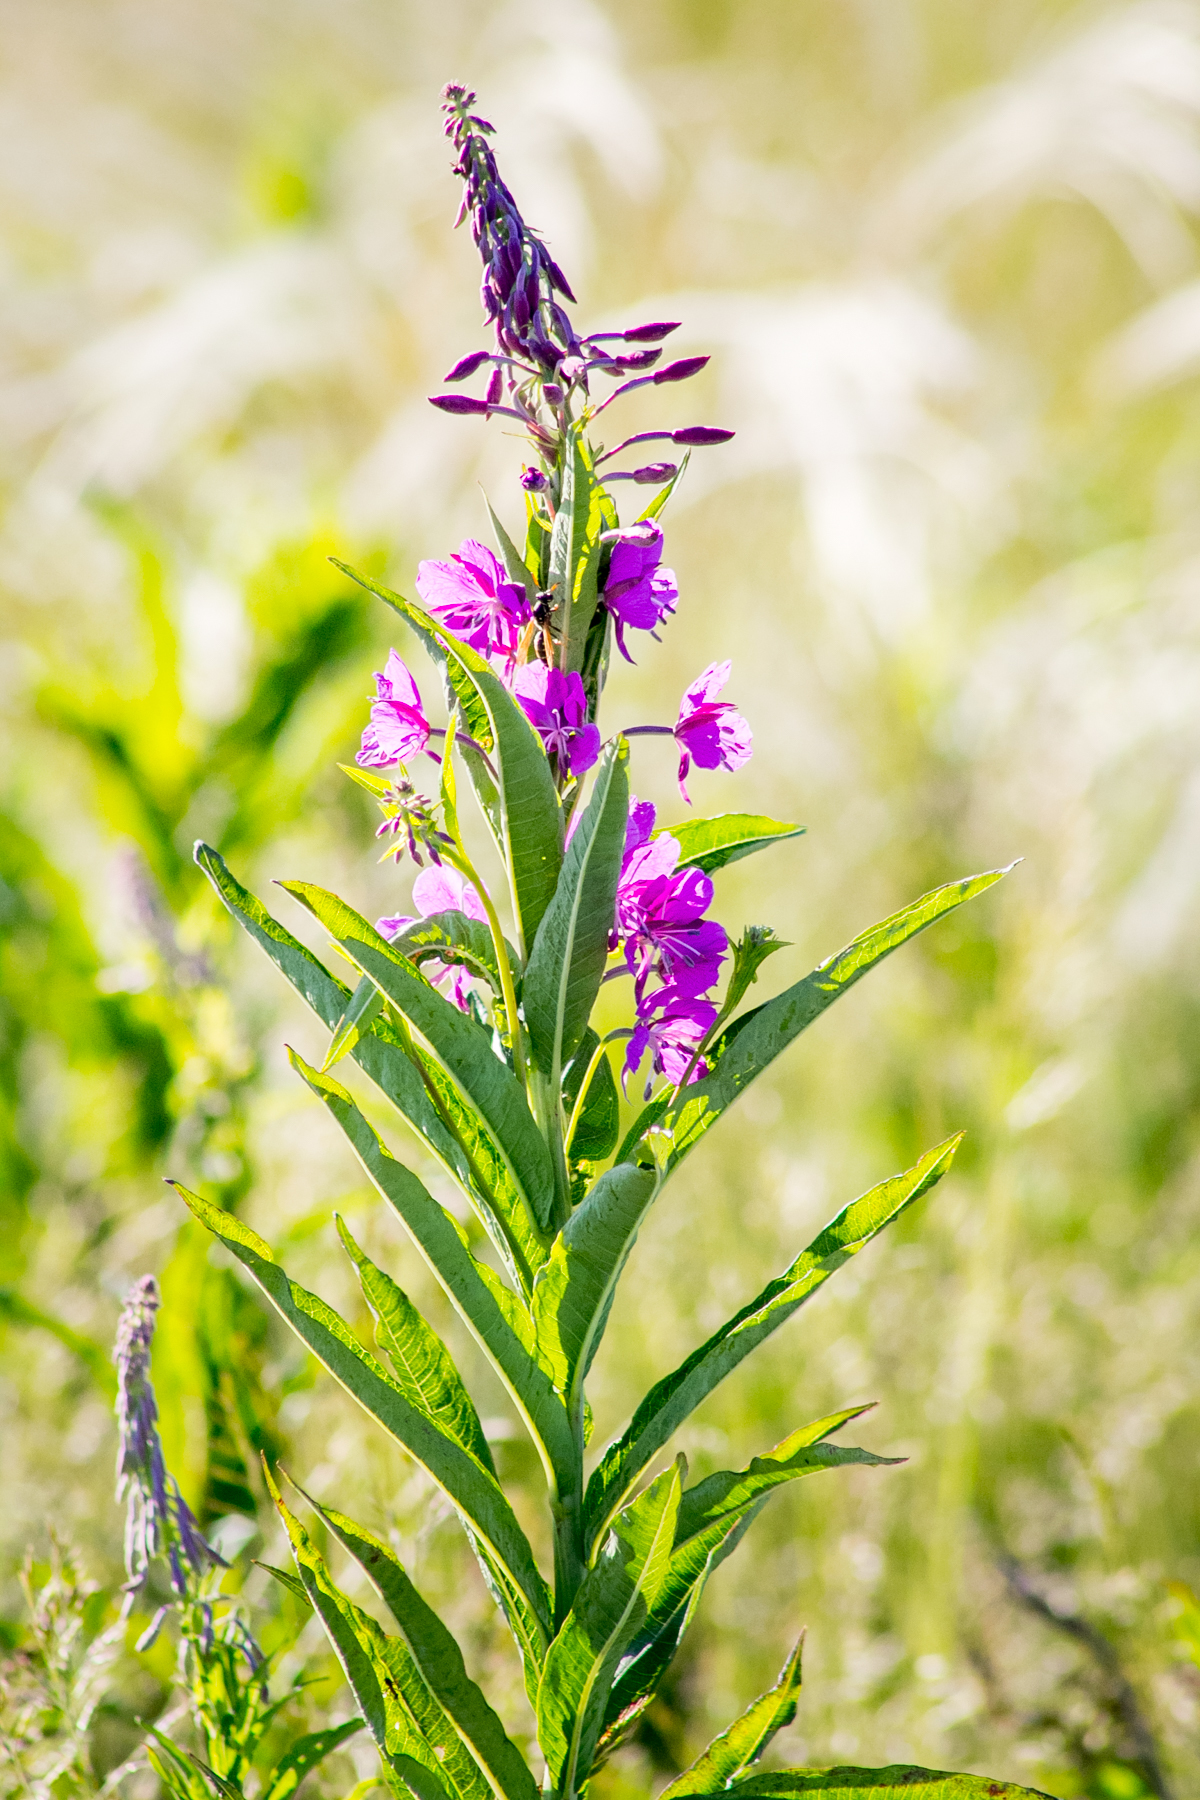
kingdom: Plantae
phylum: Tracheophyta
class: Magnoliopsida
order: Myrtales
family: Onagraceae
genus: Chamaenerion
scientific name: Chamaenerion angustifolium
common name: Fireweed
